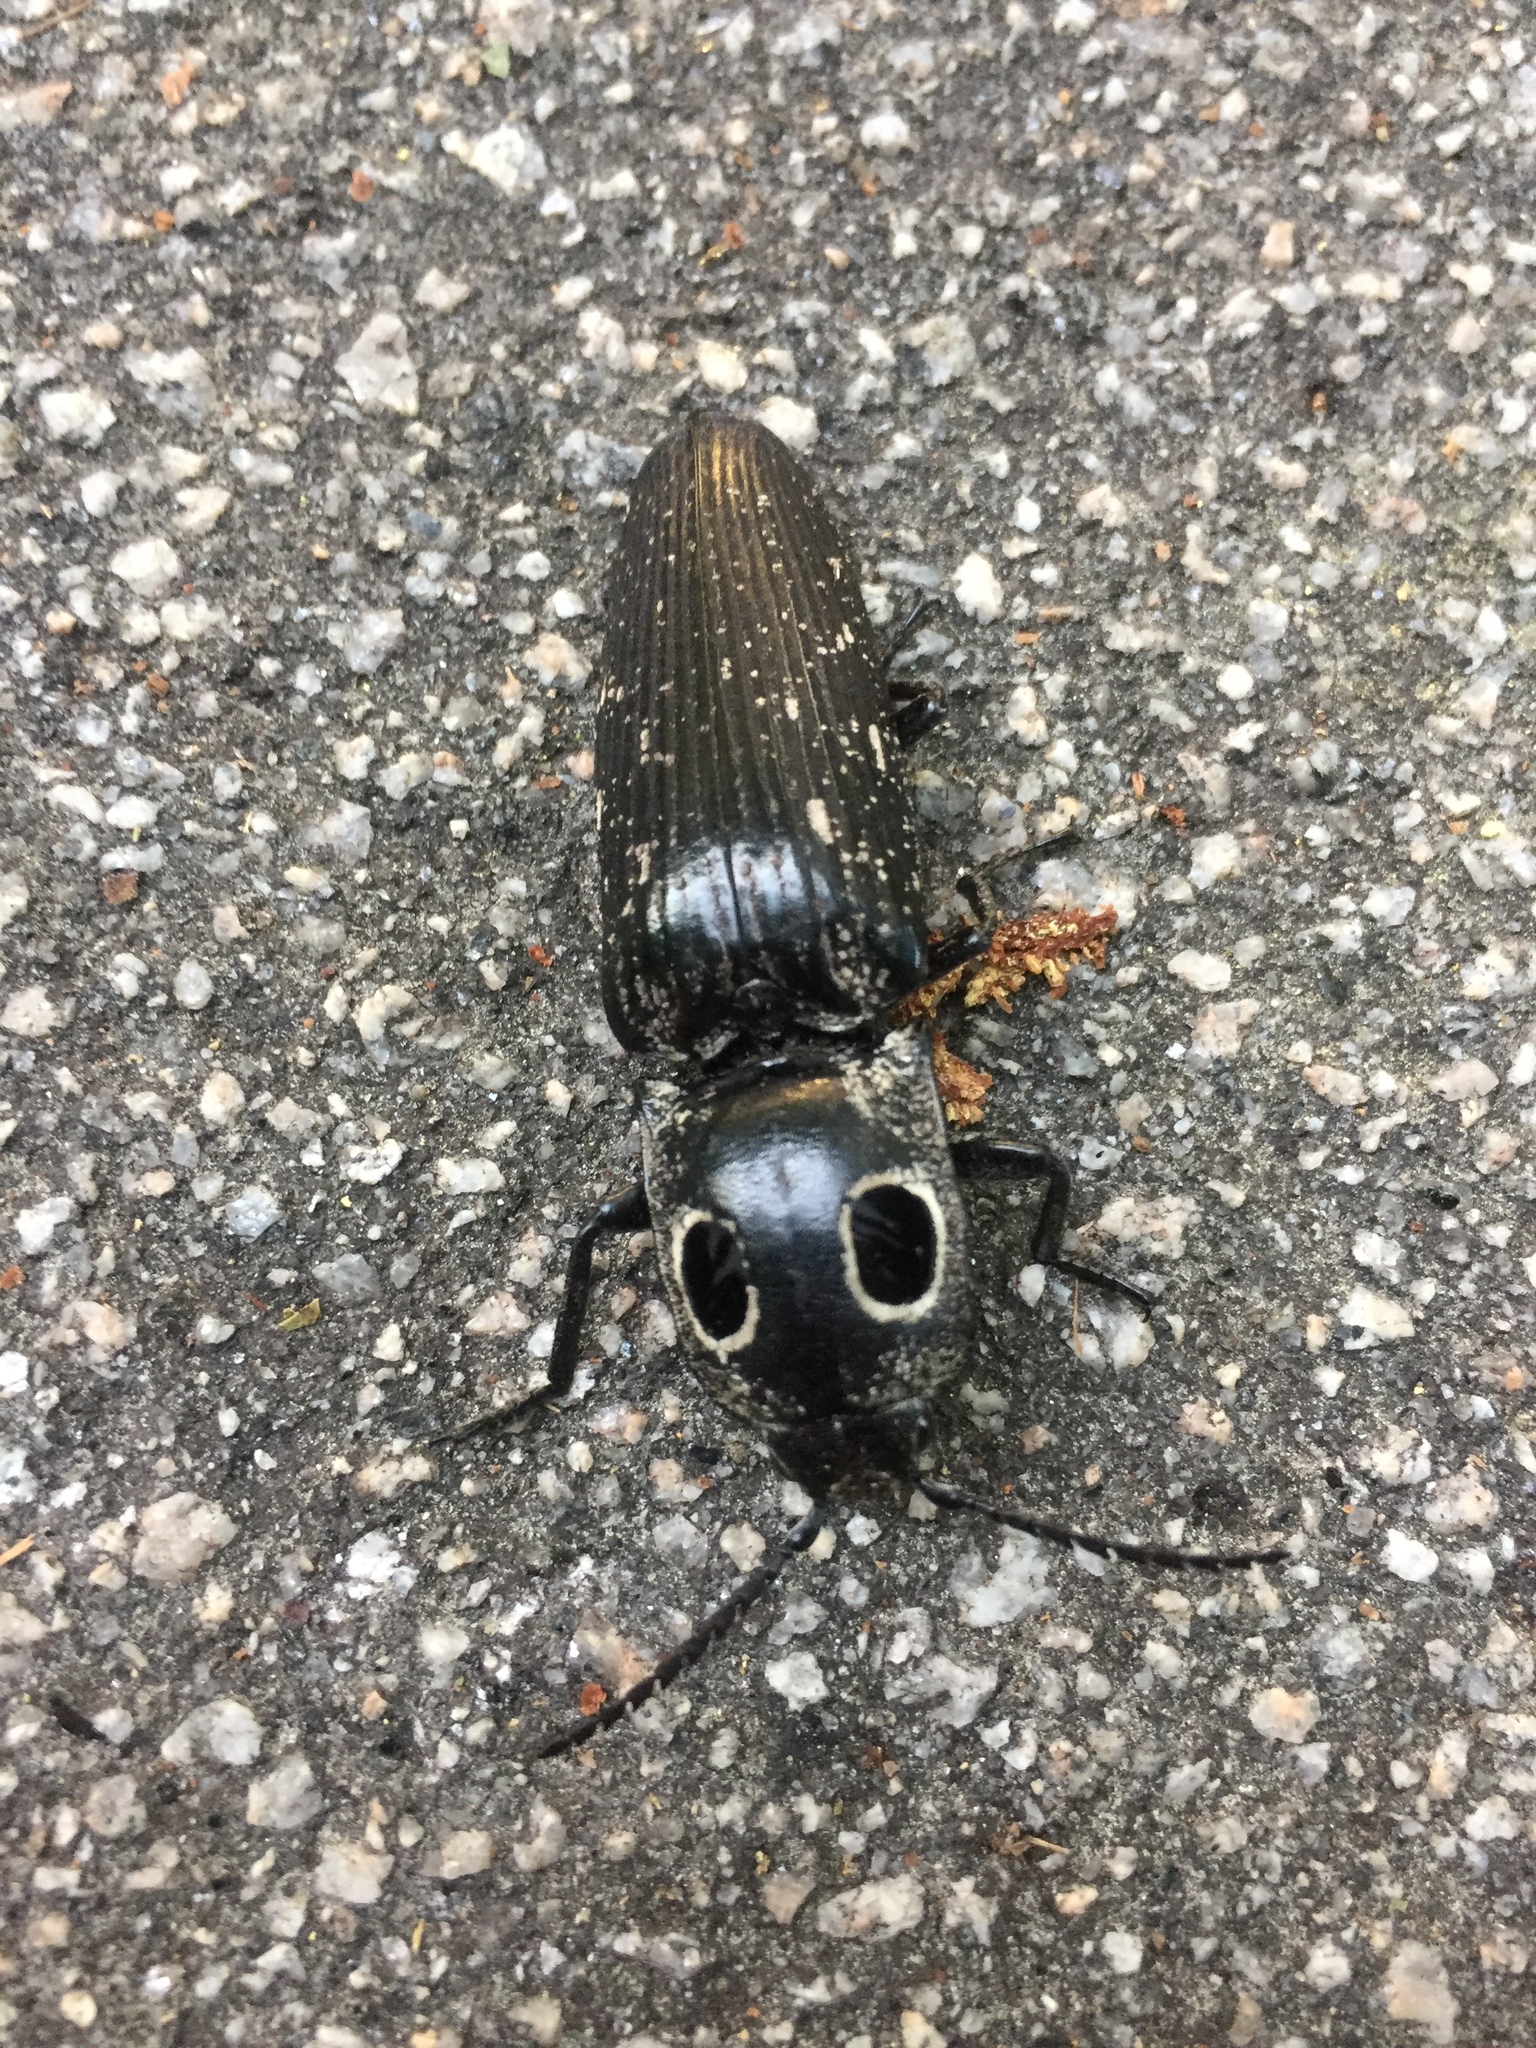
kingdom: Animalia
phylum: Arthropoda
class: Insecta
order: Coleoptera
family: Elateridae
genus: Alaus
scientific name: Alaus oculatus
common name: Eastern eyed click beetle
